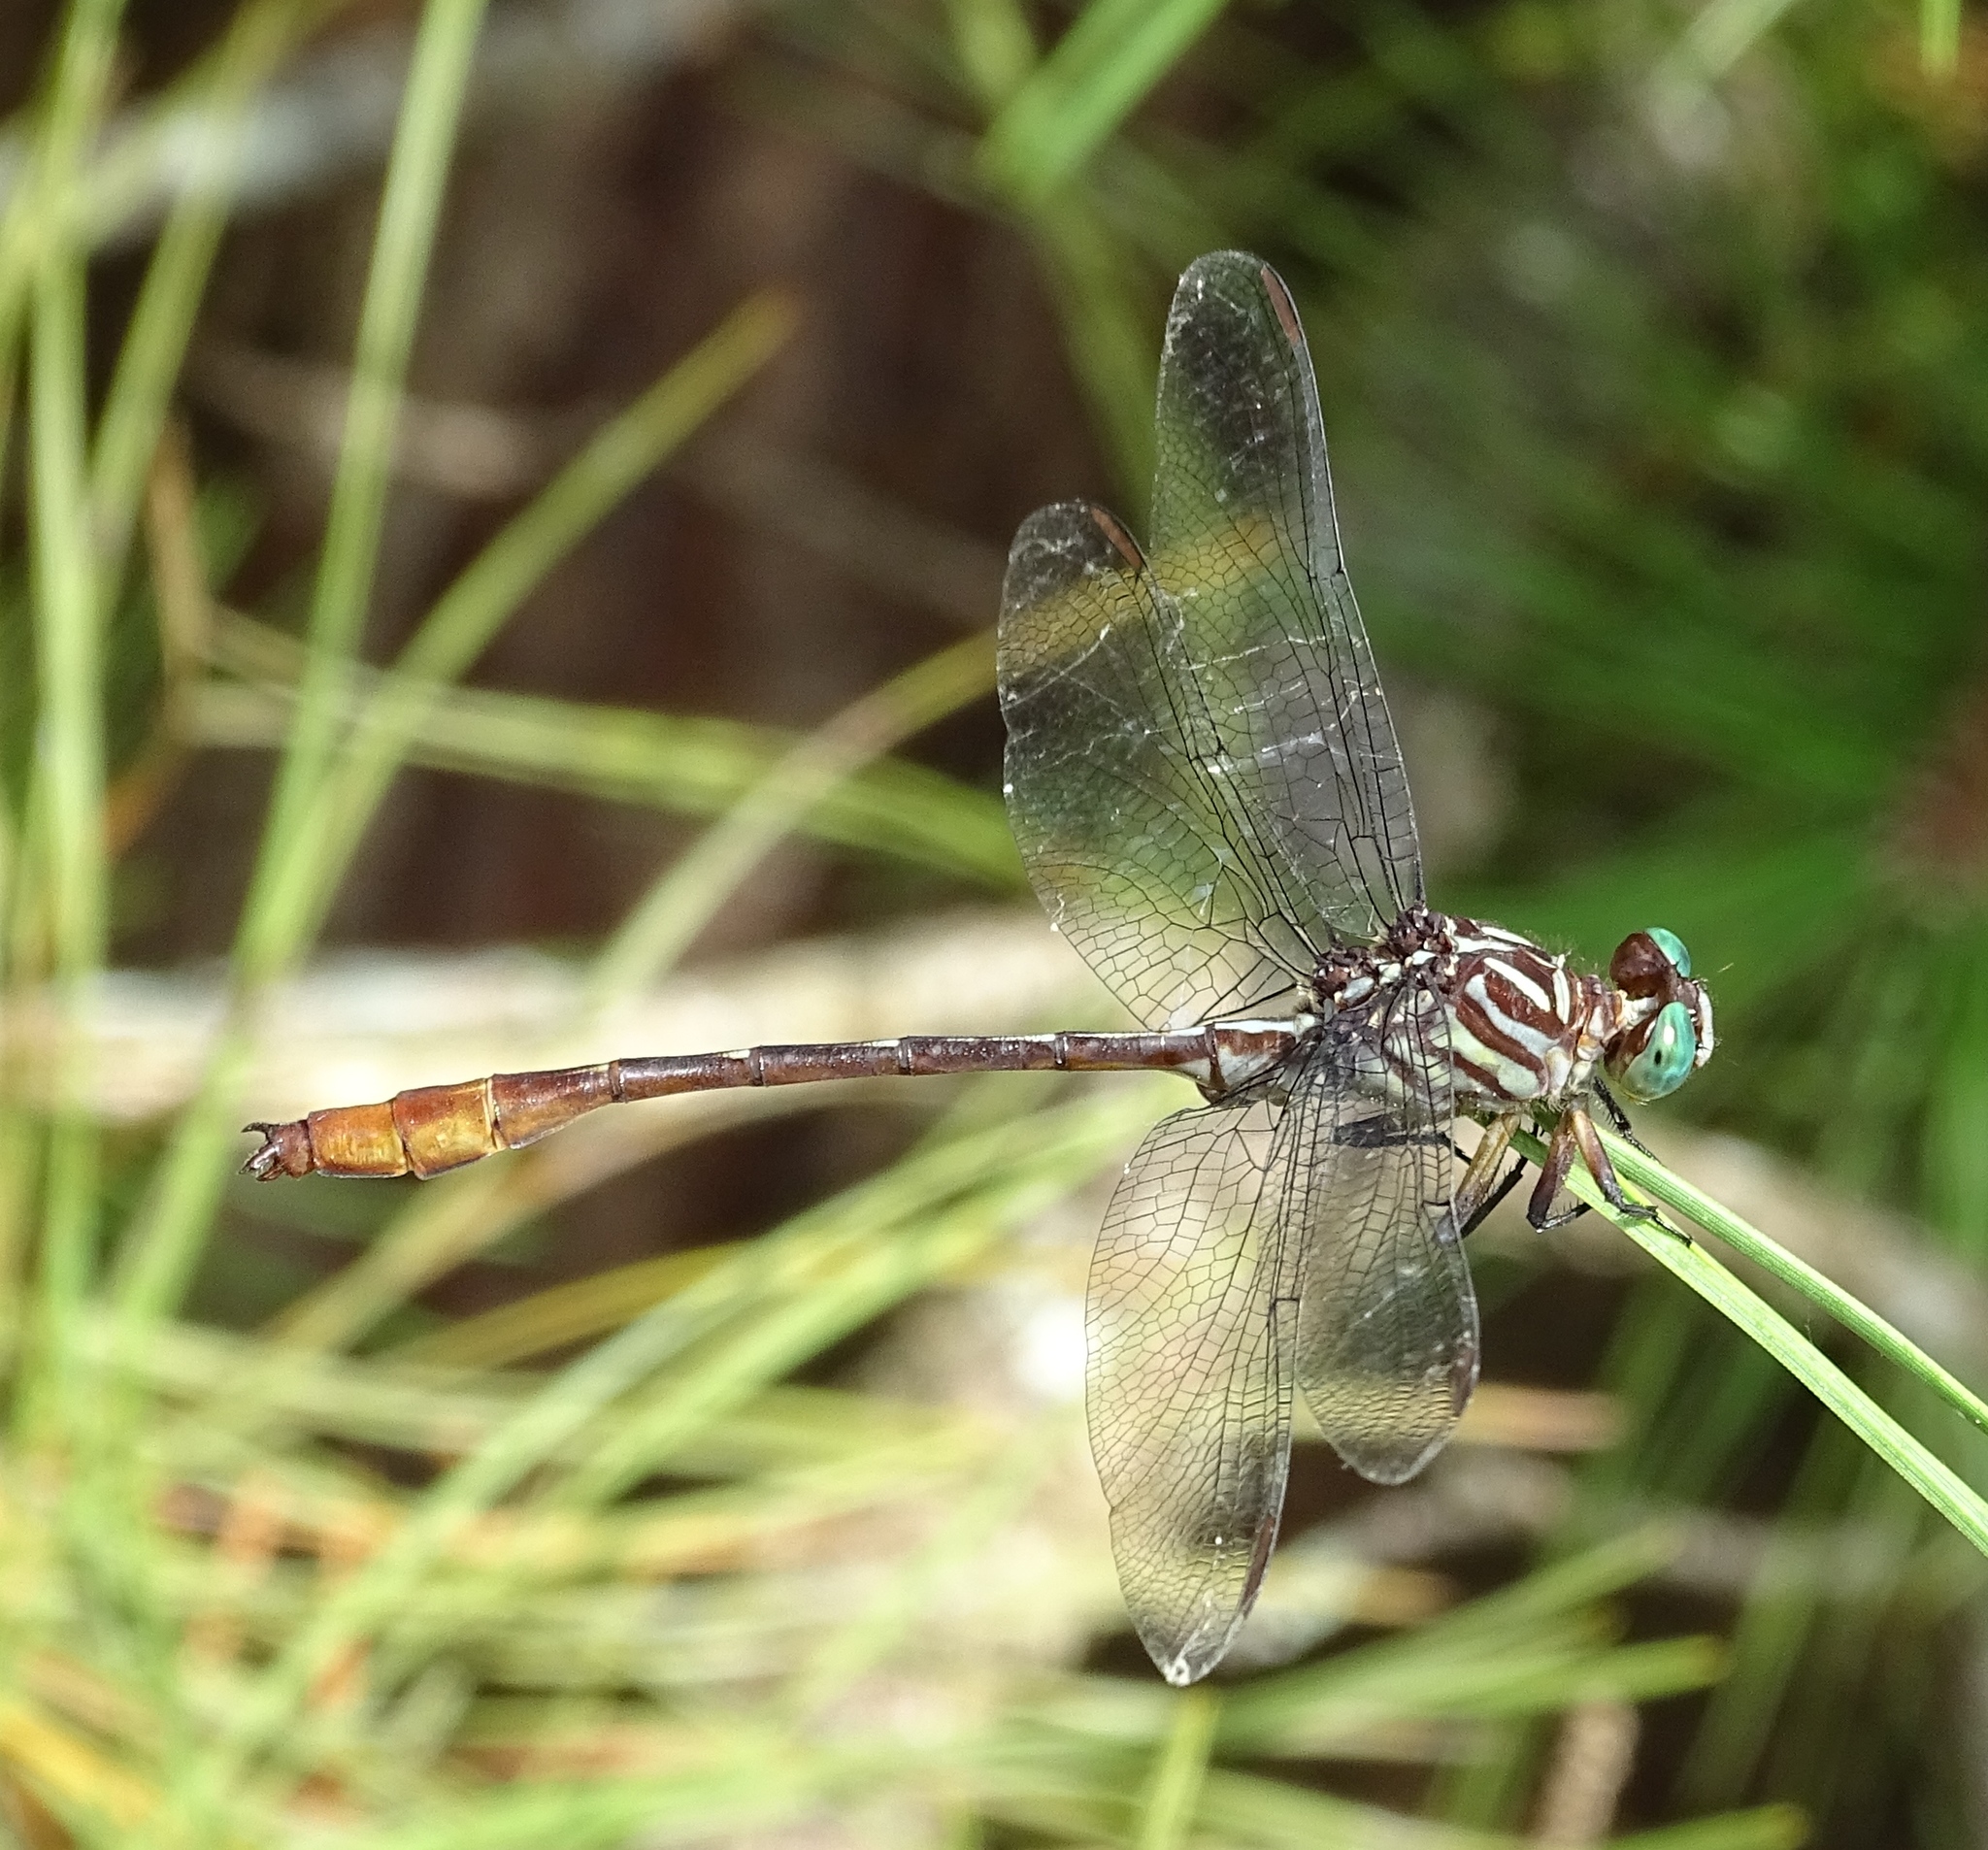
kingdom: Animalia
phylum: Arthropoda
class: Insecta
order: Odonata
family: Gomphidae
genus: Stylurus
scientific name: Stylurus plagiatus
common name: Russet-tipped clubtail
